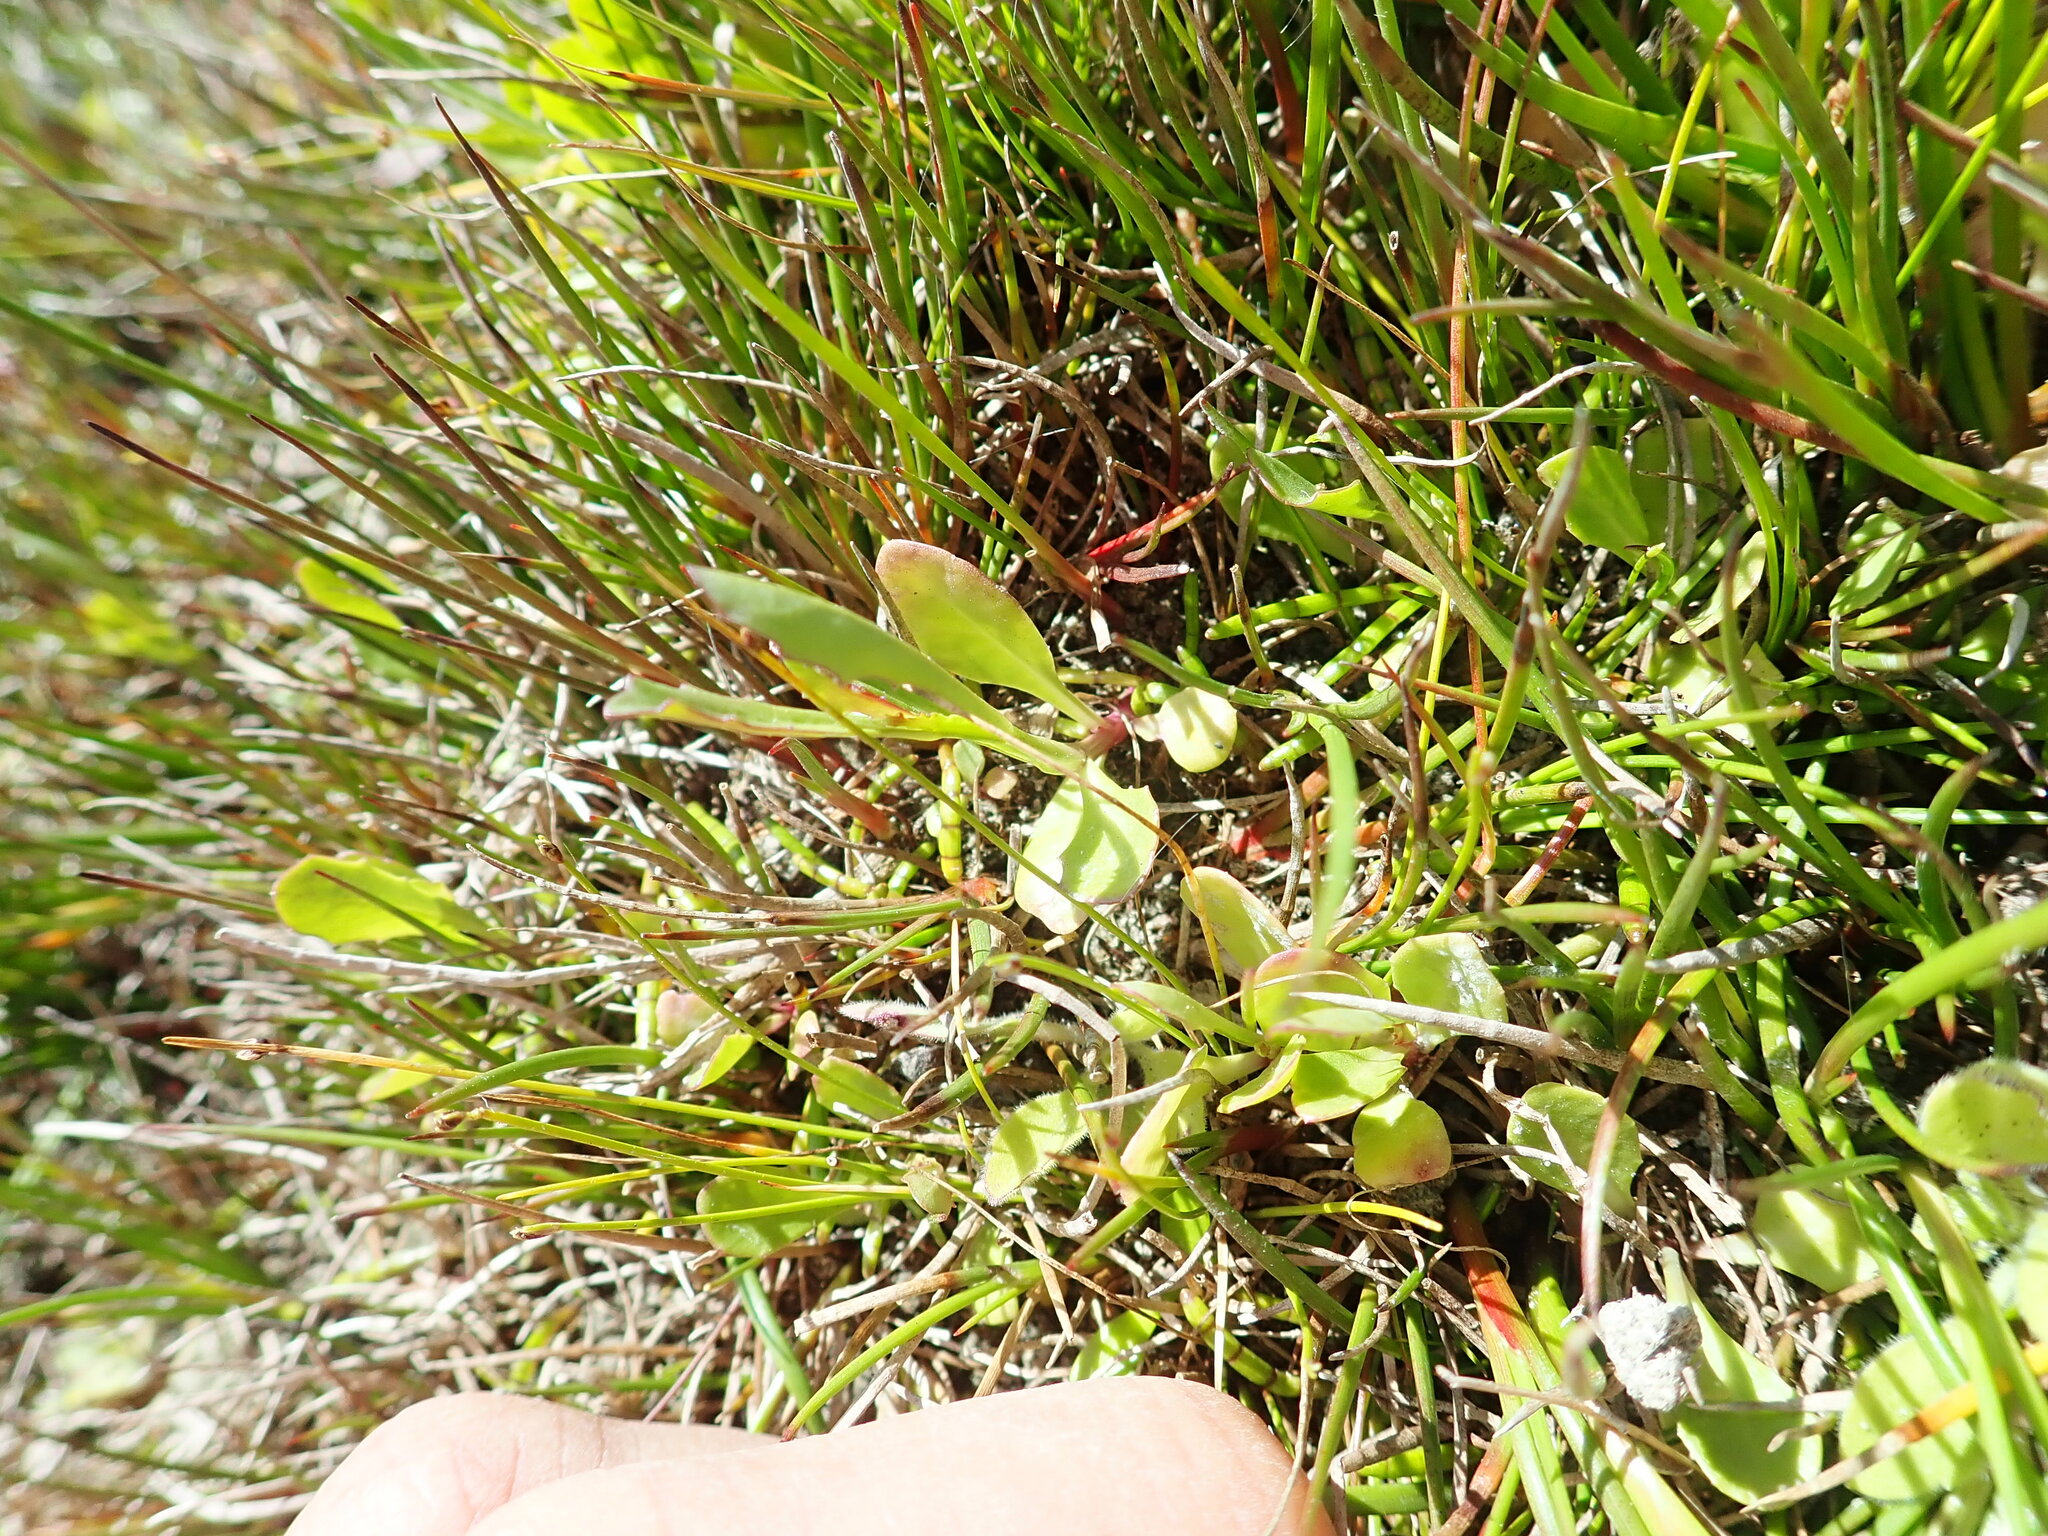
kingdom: Plantae
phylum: Tracheophyta
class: Magnoliopsida
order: Asterales
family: Campanulaceae
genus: Lobelia
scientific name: Lobelia anceps
